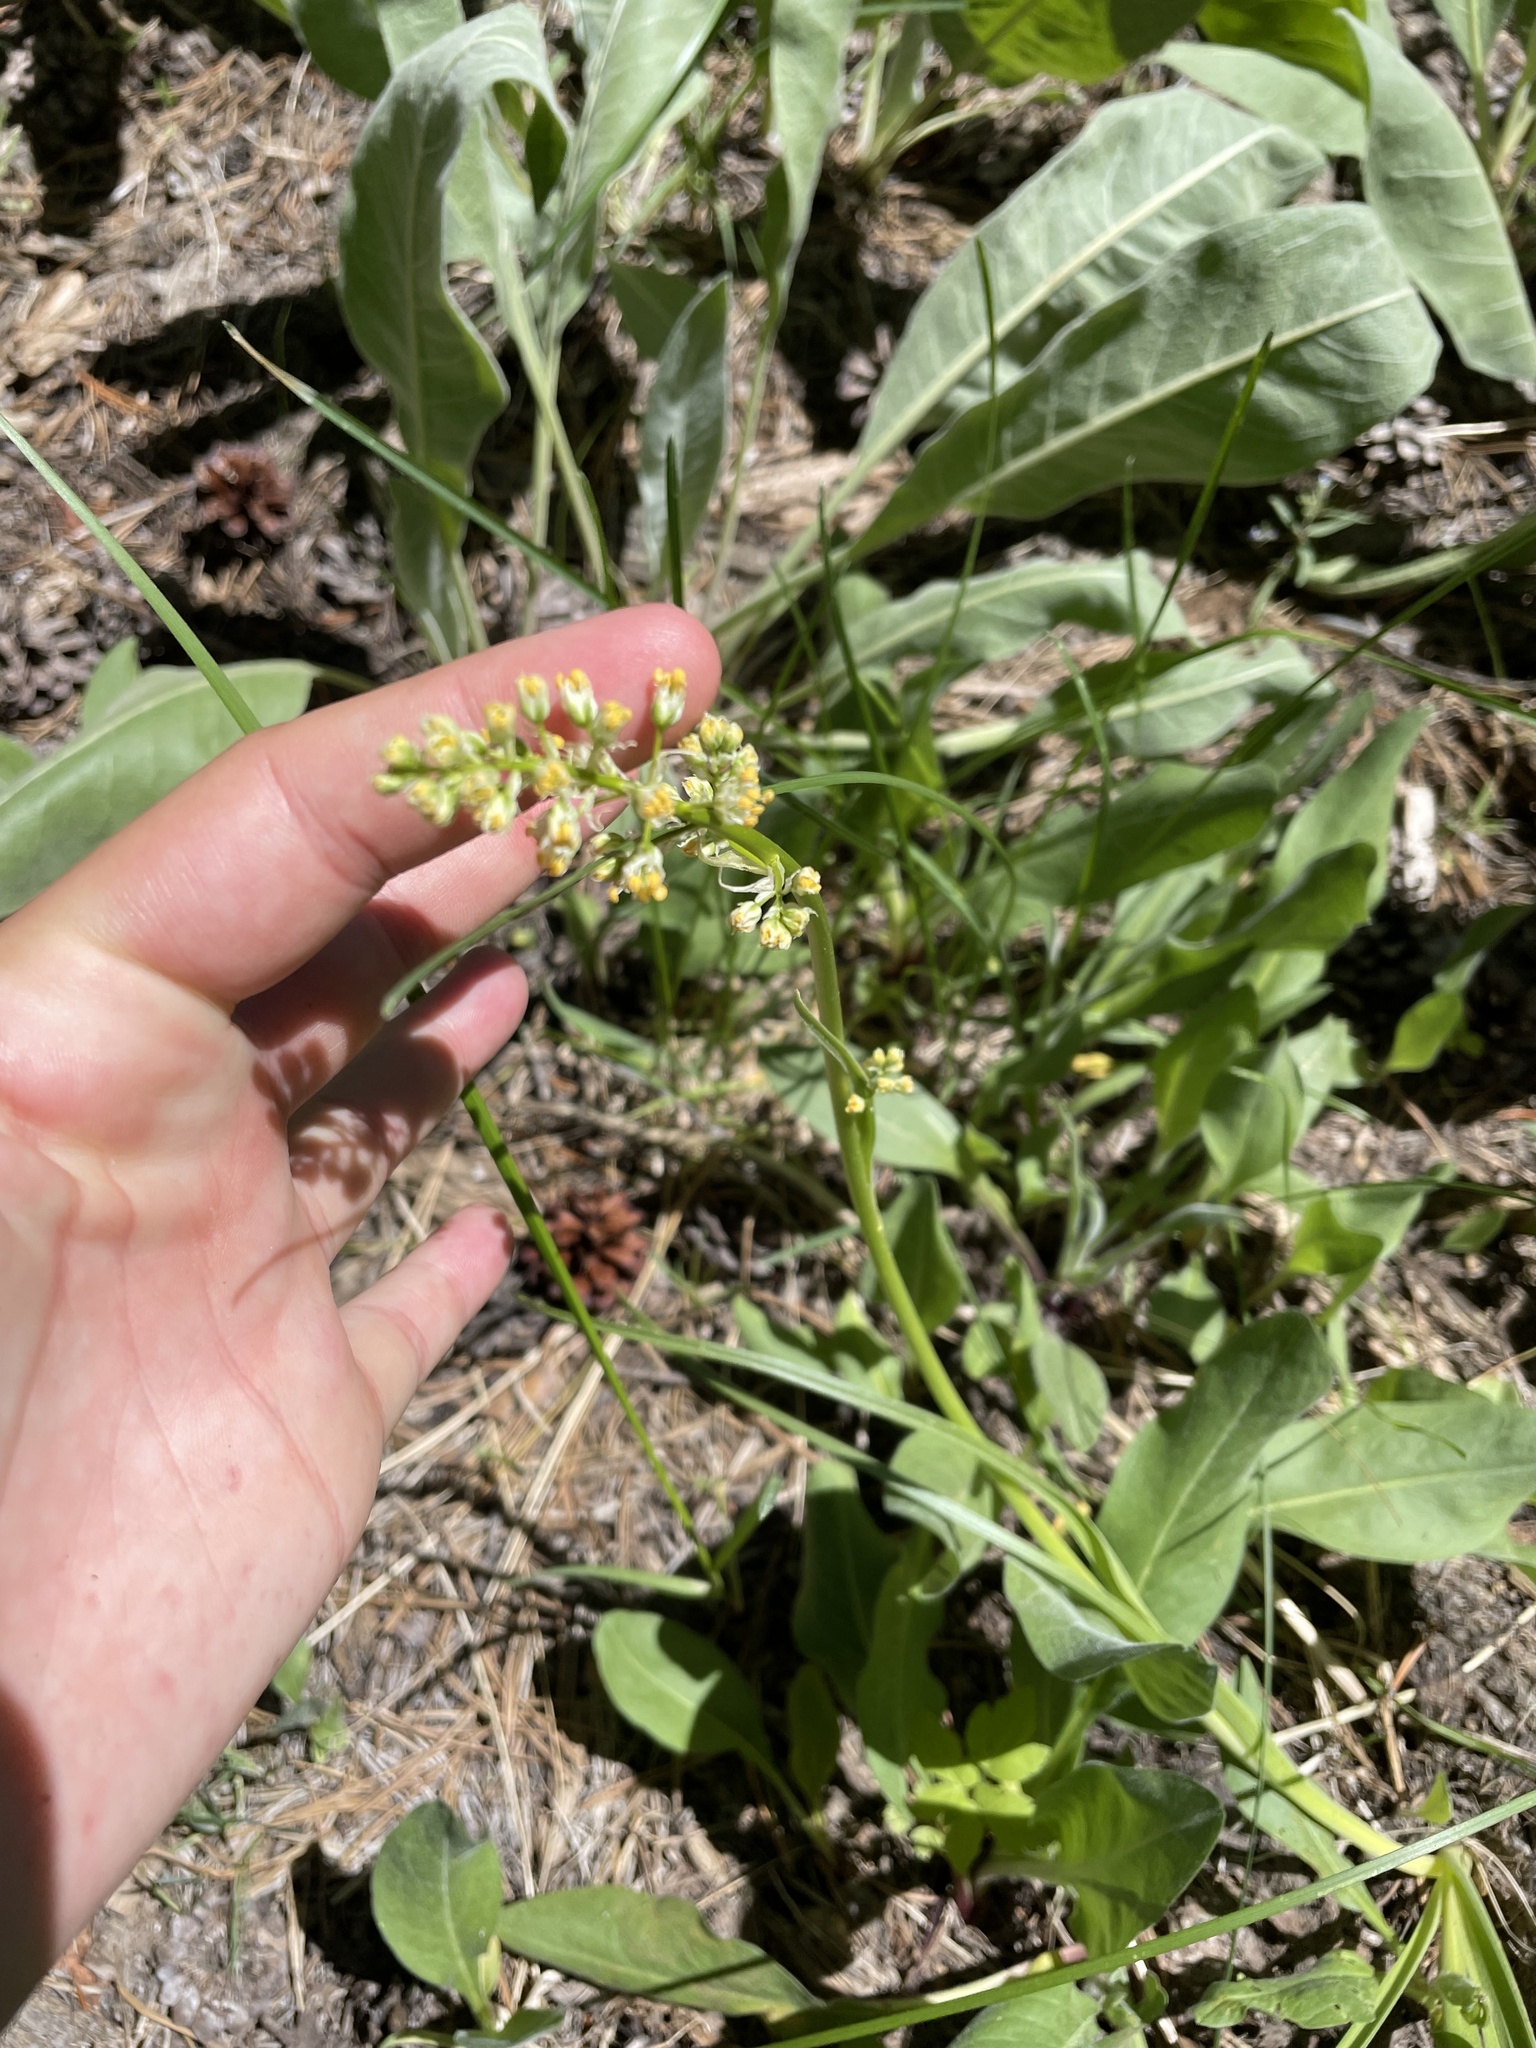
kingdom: Plantae
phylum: Tracheophyta
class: Liliopsida
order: Liliales
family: Melanthiaceae
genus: Toxicoscordion
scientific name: Toxicoscordion paniculatum
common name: Foothill death camas
